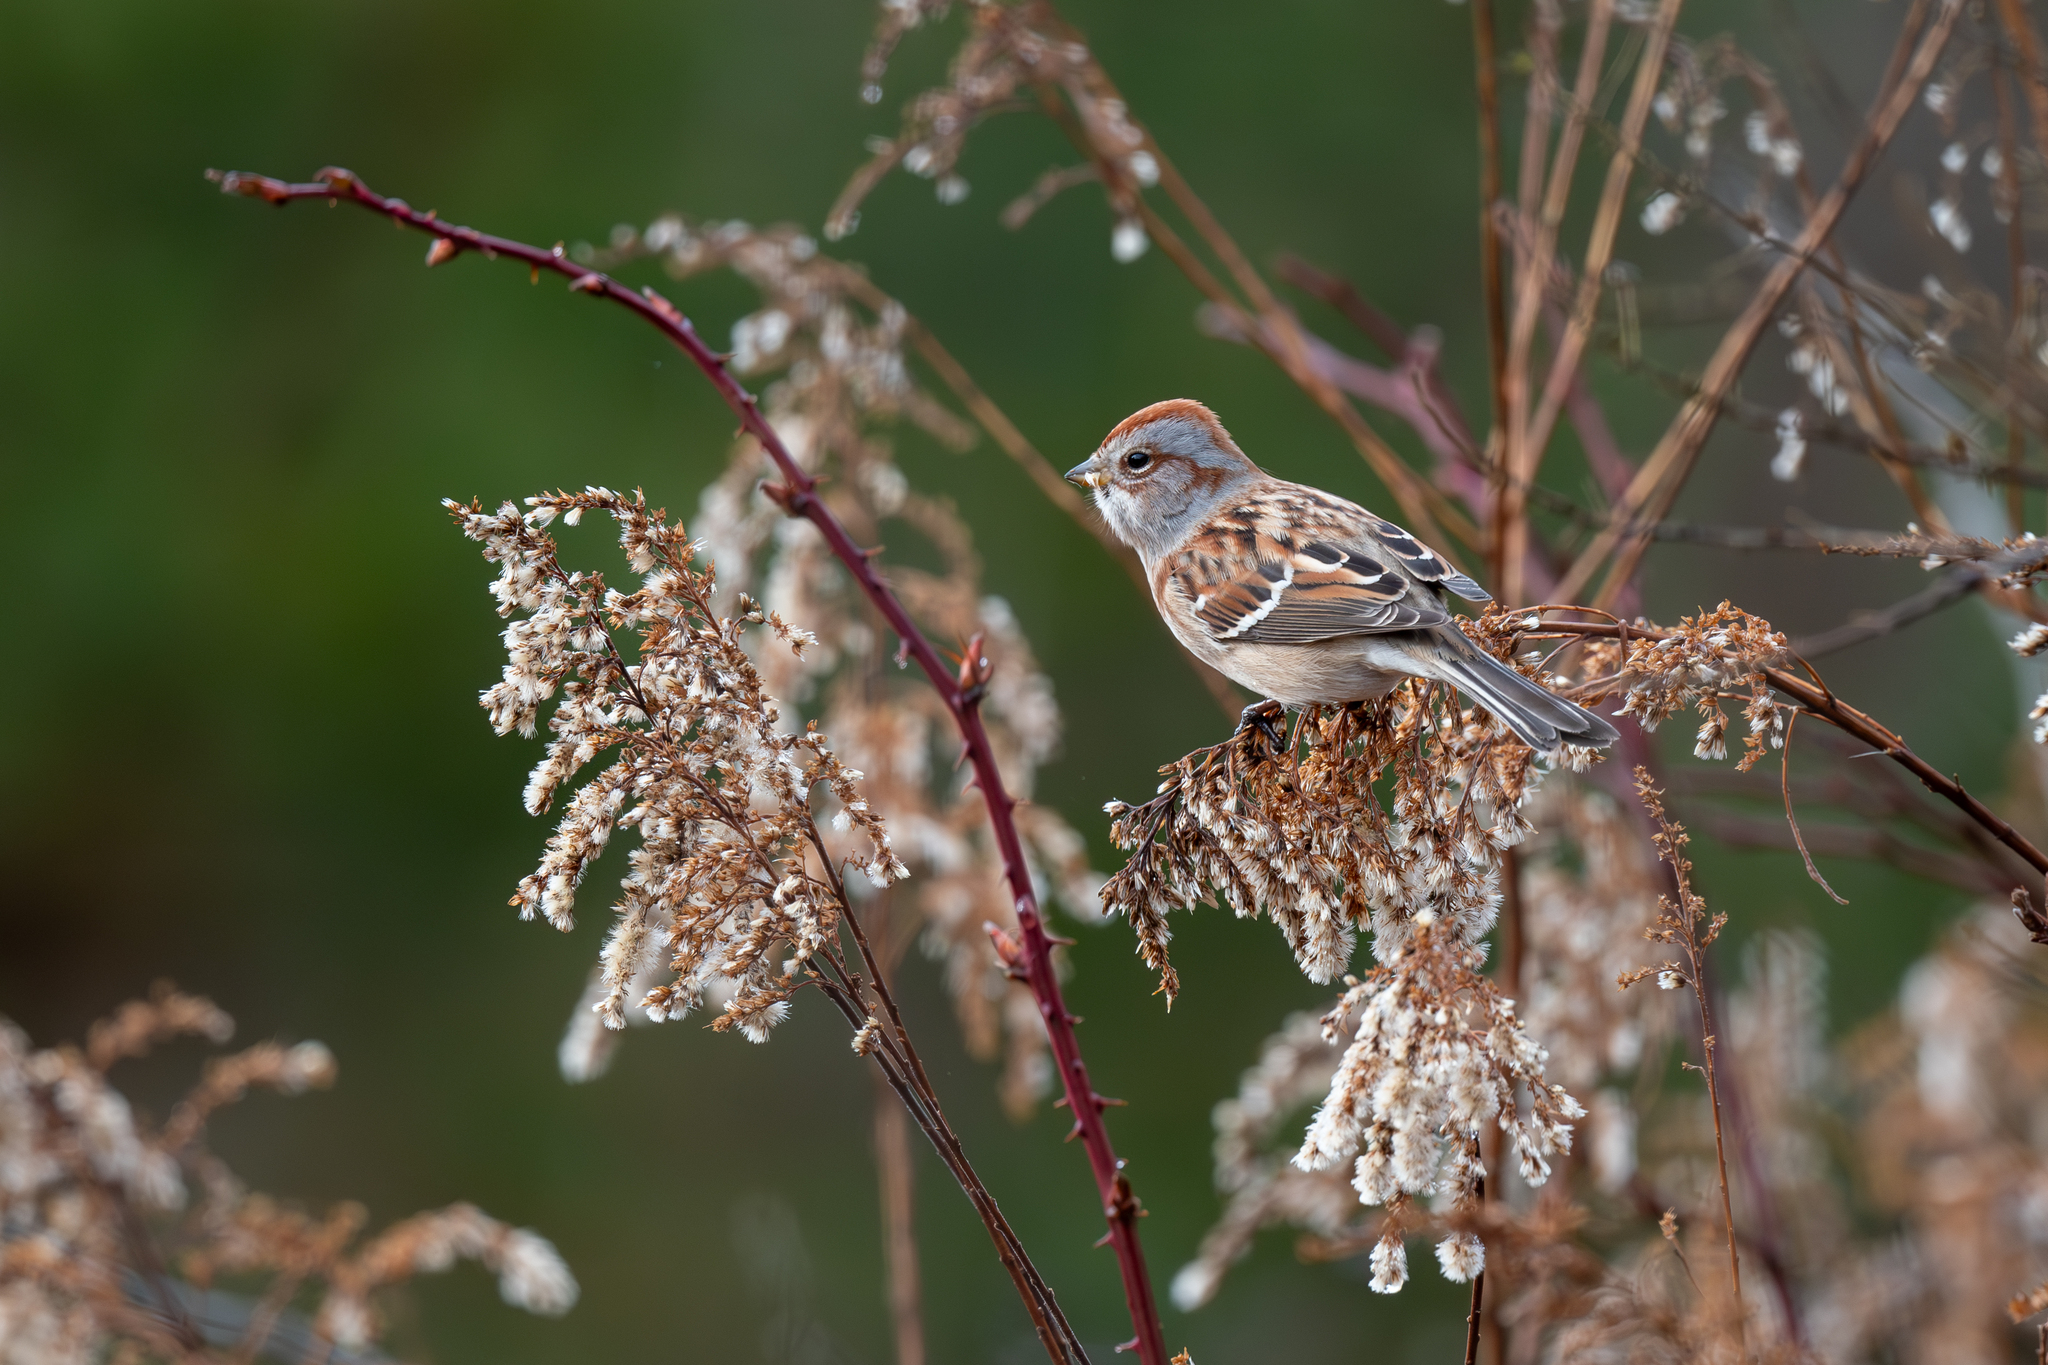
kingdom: Animalia
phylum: Chordata
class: Aves
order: Passeriformes
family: Passerellidae
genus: Spizelloides
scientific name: Spizelloides arborea
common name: American tree sparrow
